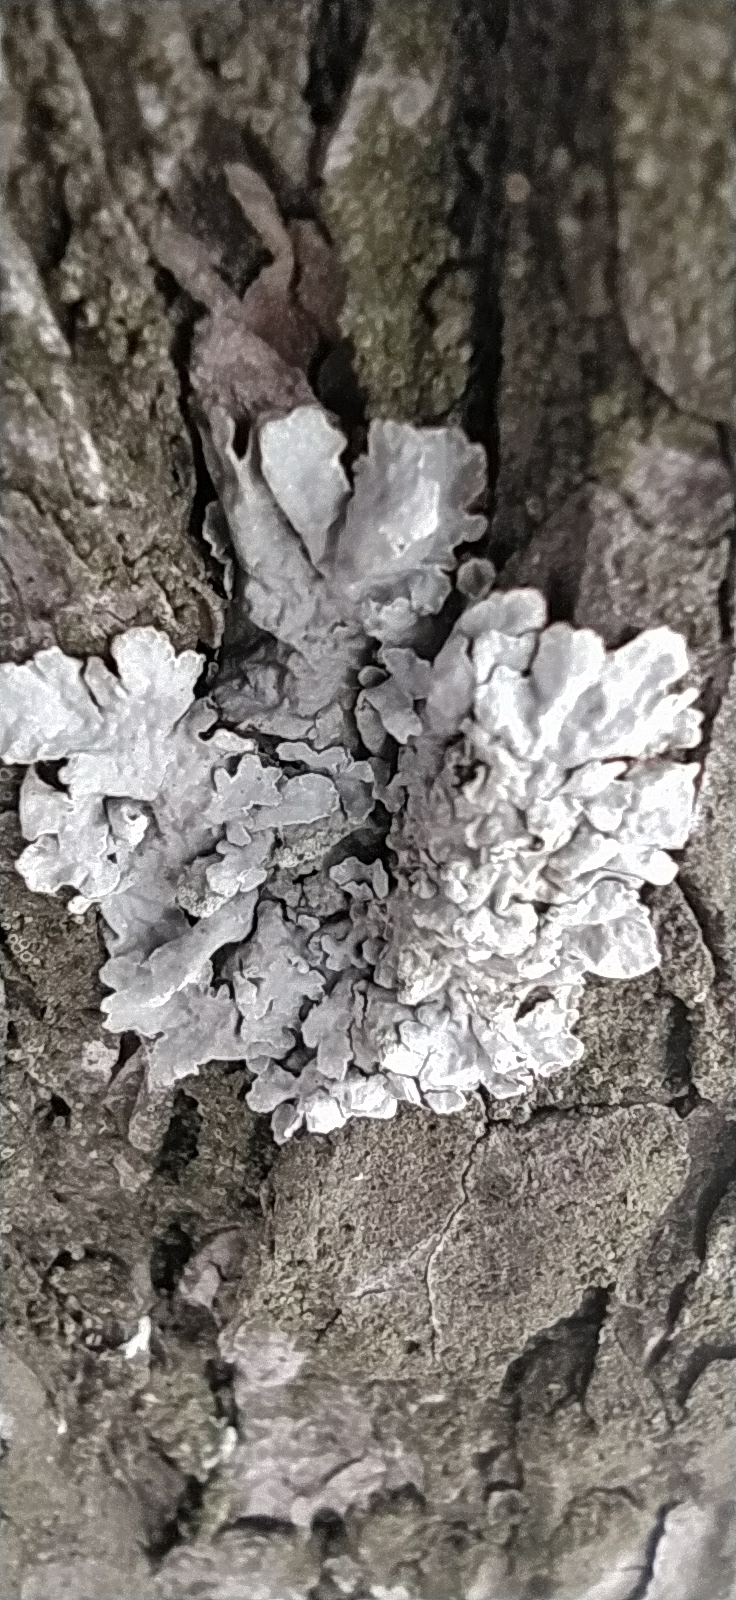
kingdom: Fungi
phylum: Ascomycota
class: Lecanoromycetes
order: Lecanorales
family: Parmeliaceae
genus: Parmelia
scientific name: Parmelia sulcata
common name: Netted shield lichen
